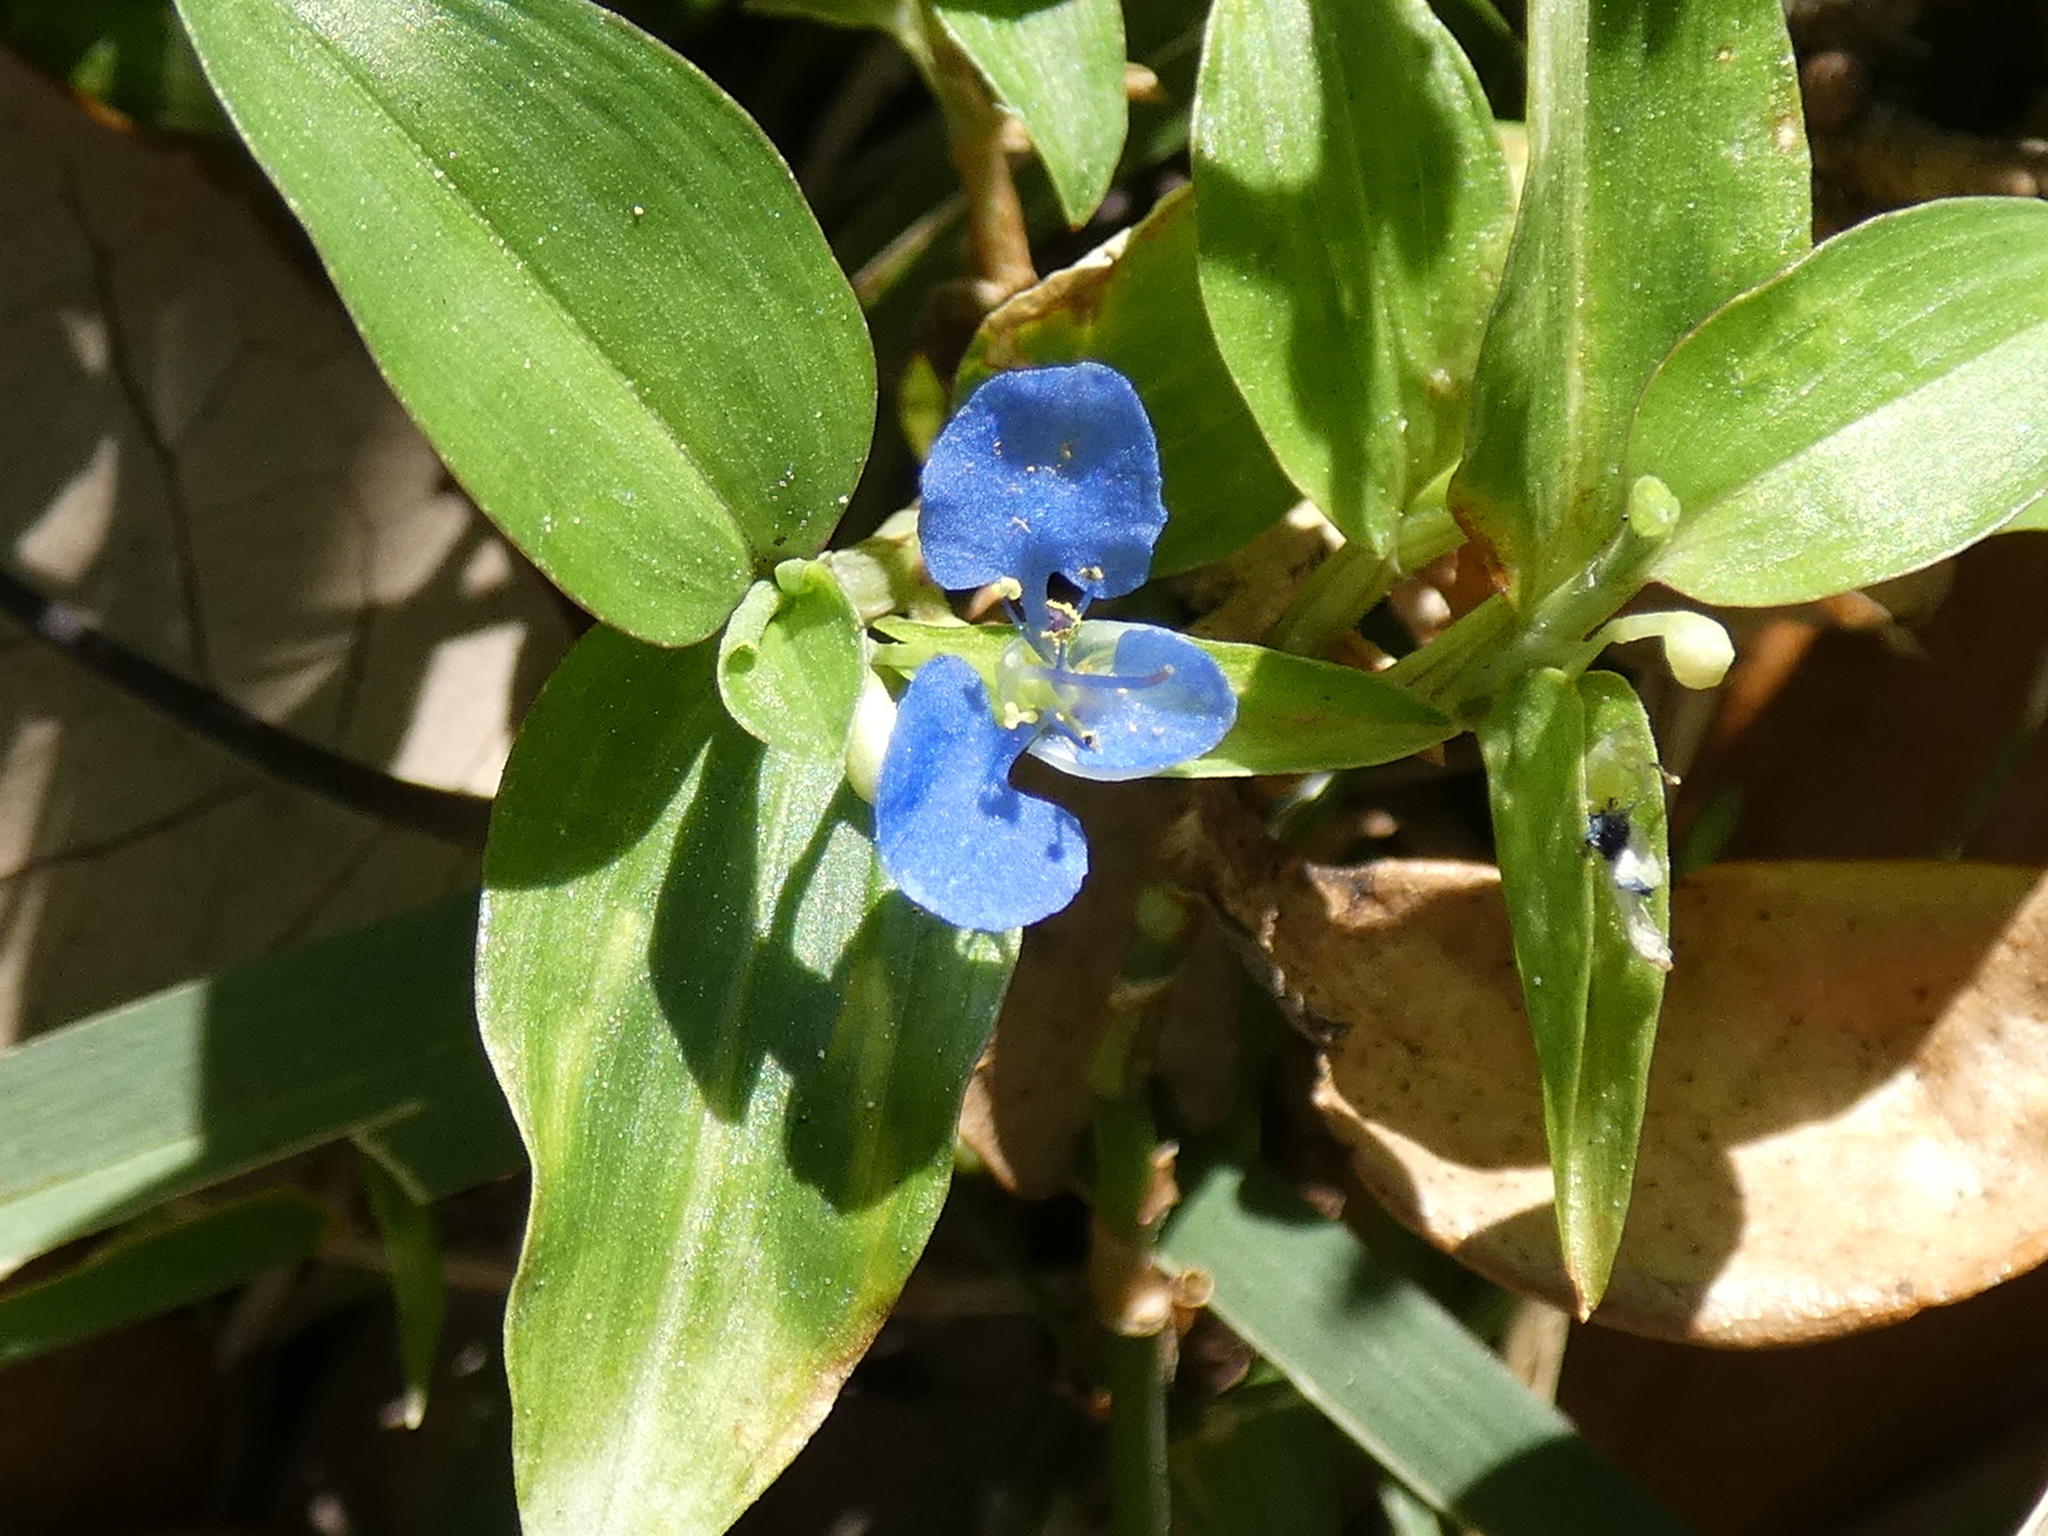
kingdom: Plantae
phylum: Tracheophyta
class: Liliopsida
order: Commelinales
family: Commelinaceae
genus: Commelina
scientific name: Commelina diffusa
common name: Climbing dayflower
